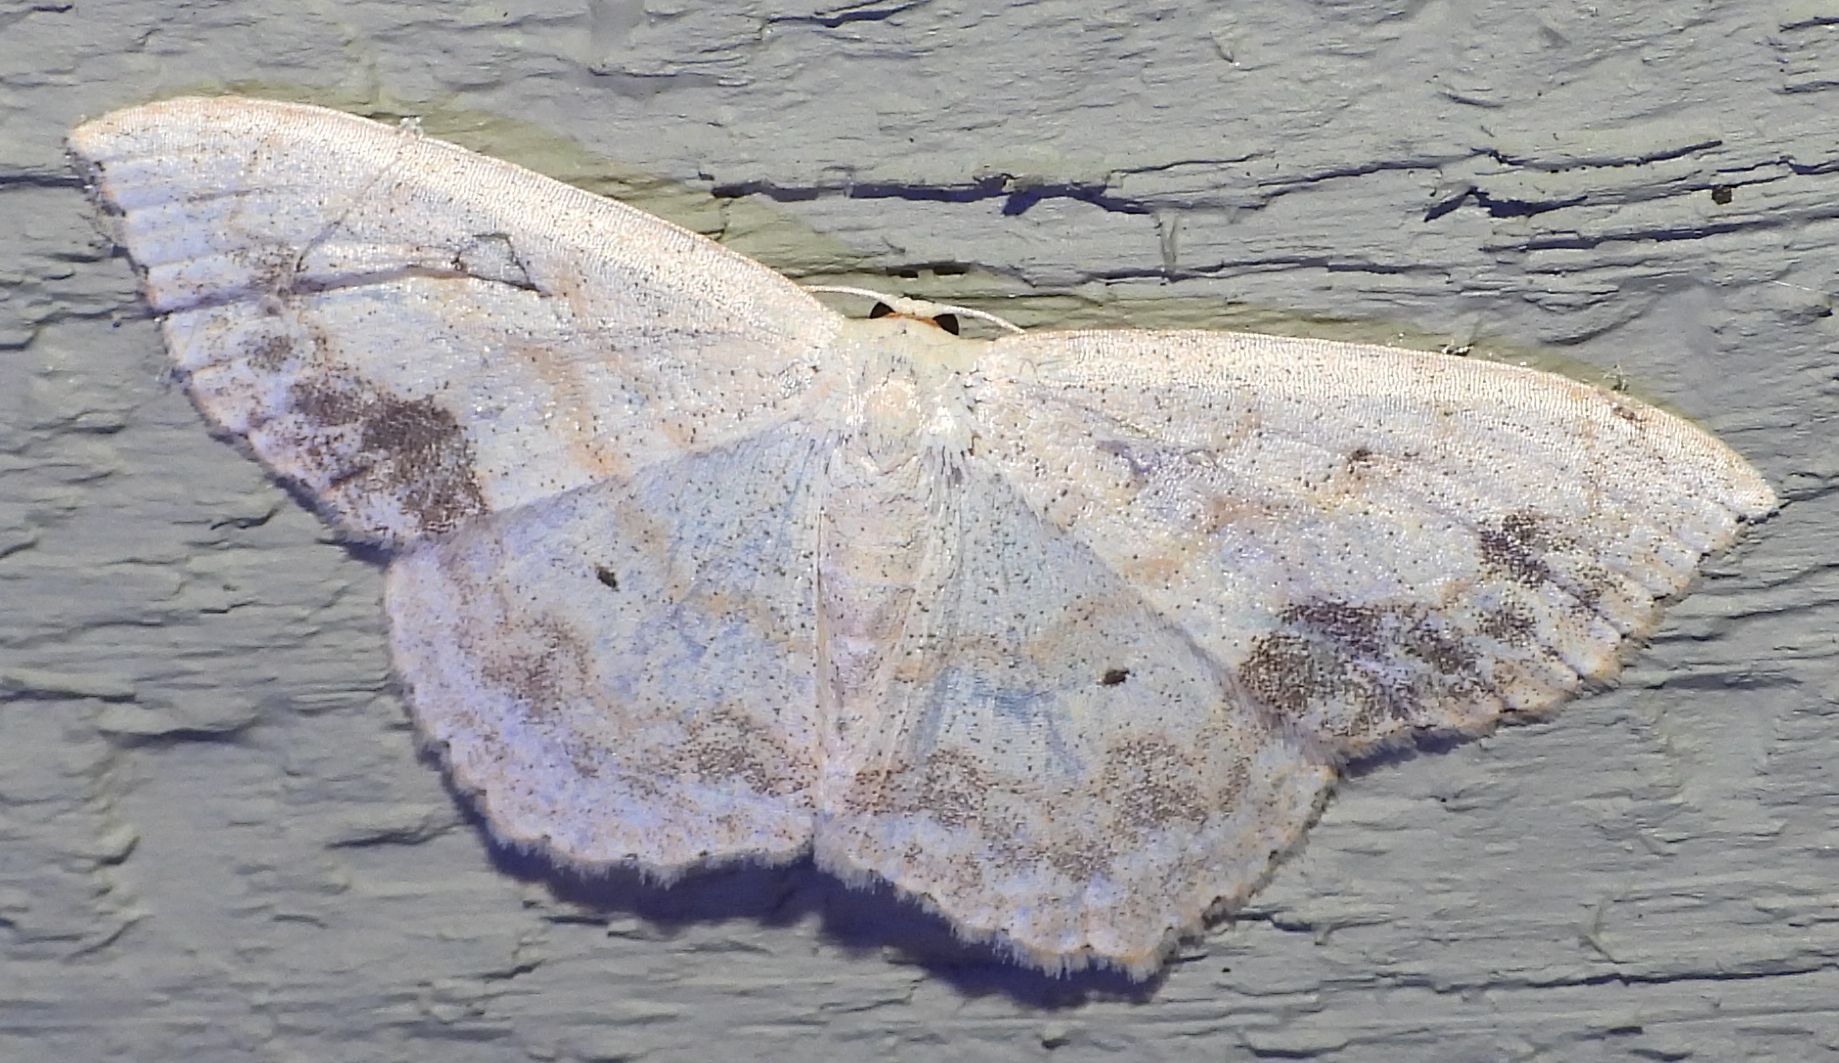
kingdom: Animalia
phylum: Arthropoda
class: Insecta
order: Lepidoptera
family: Geometridae
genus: Scopula
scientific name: Scopula limboundata
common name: Large lace border
